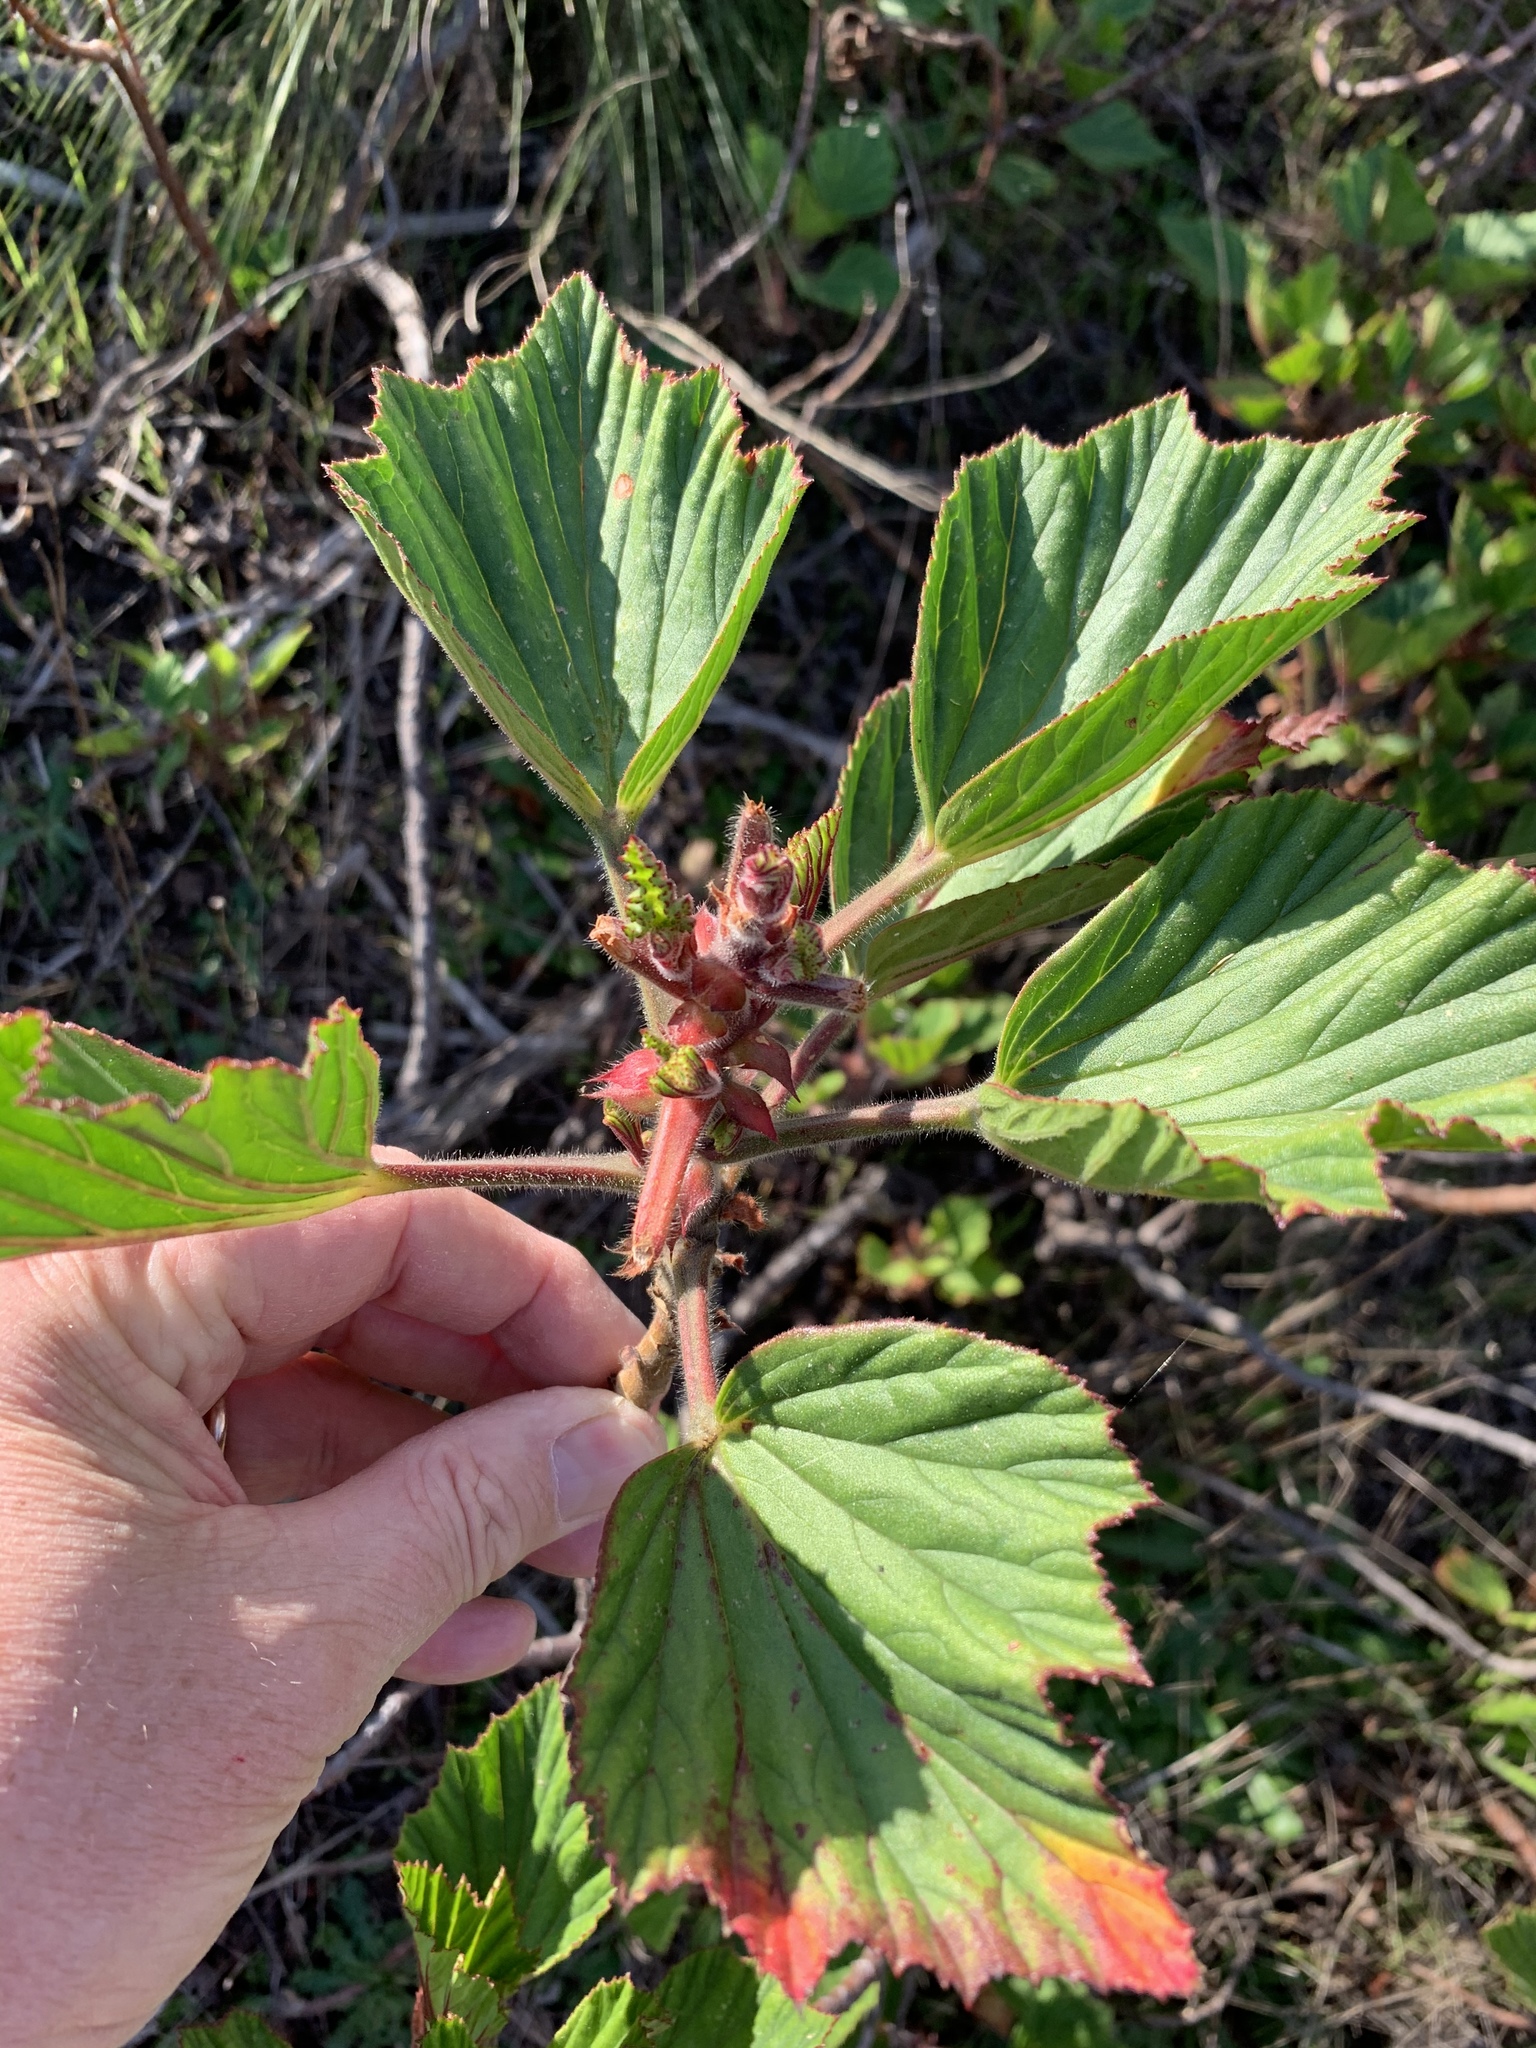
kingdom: Plantae
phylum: Tracheophyta
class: Magnoliopsida
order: Geraniales
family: Geraniaceae
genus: Pelargonium
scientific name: Pelargonium cucullatum
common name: Tree pelargonium
